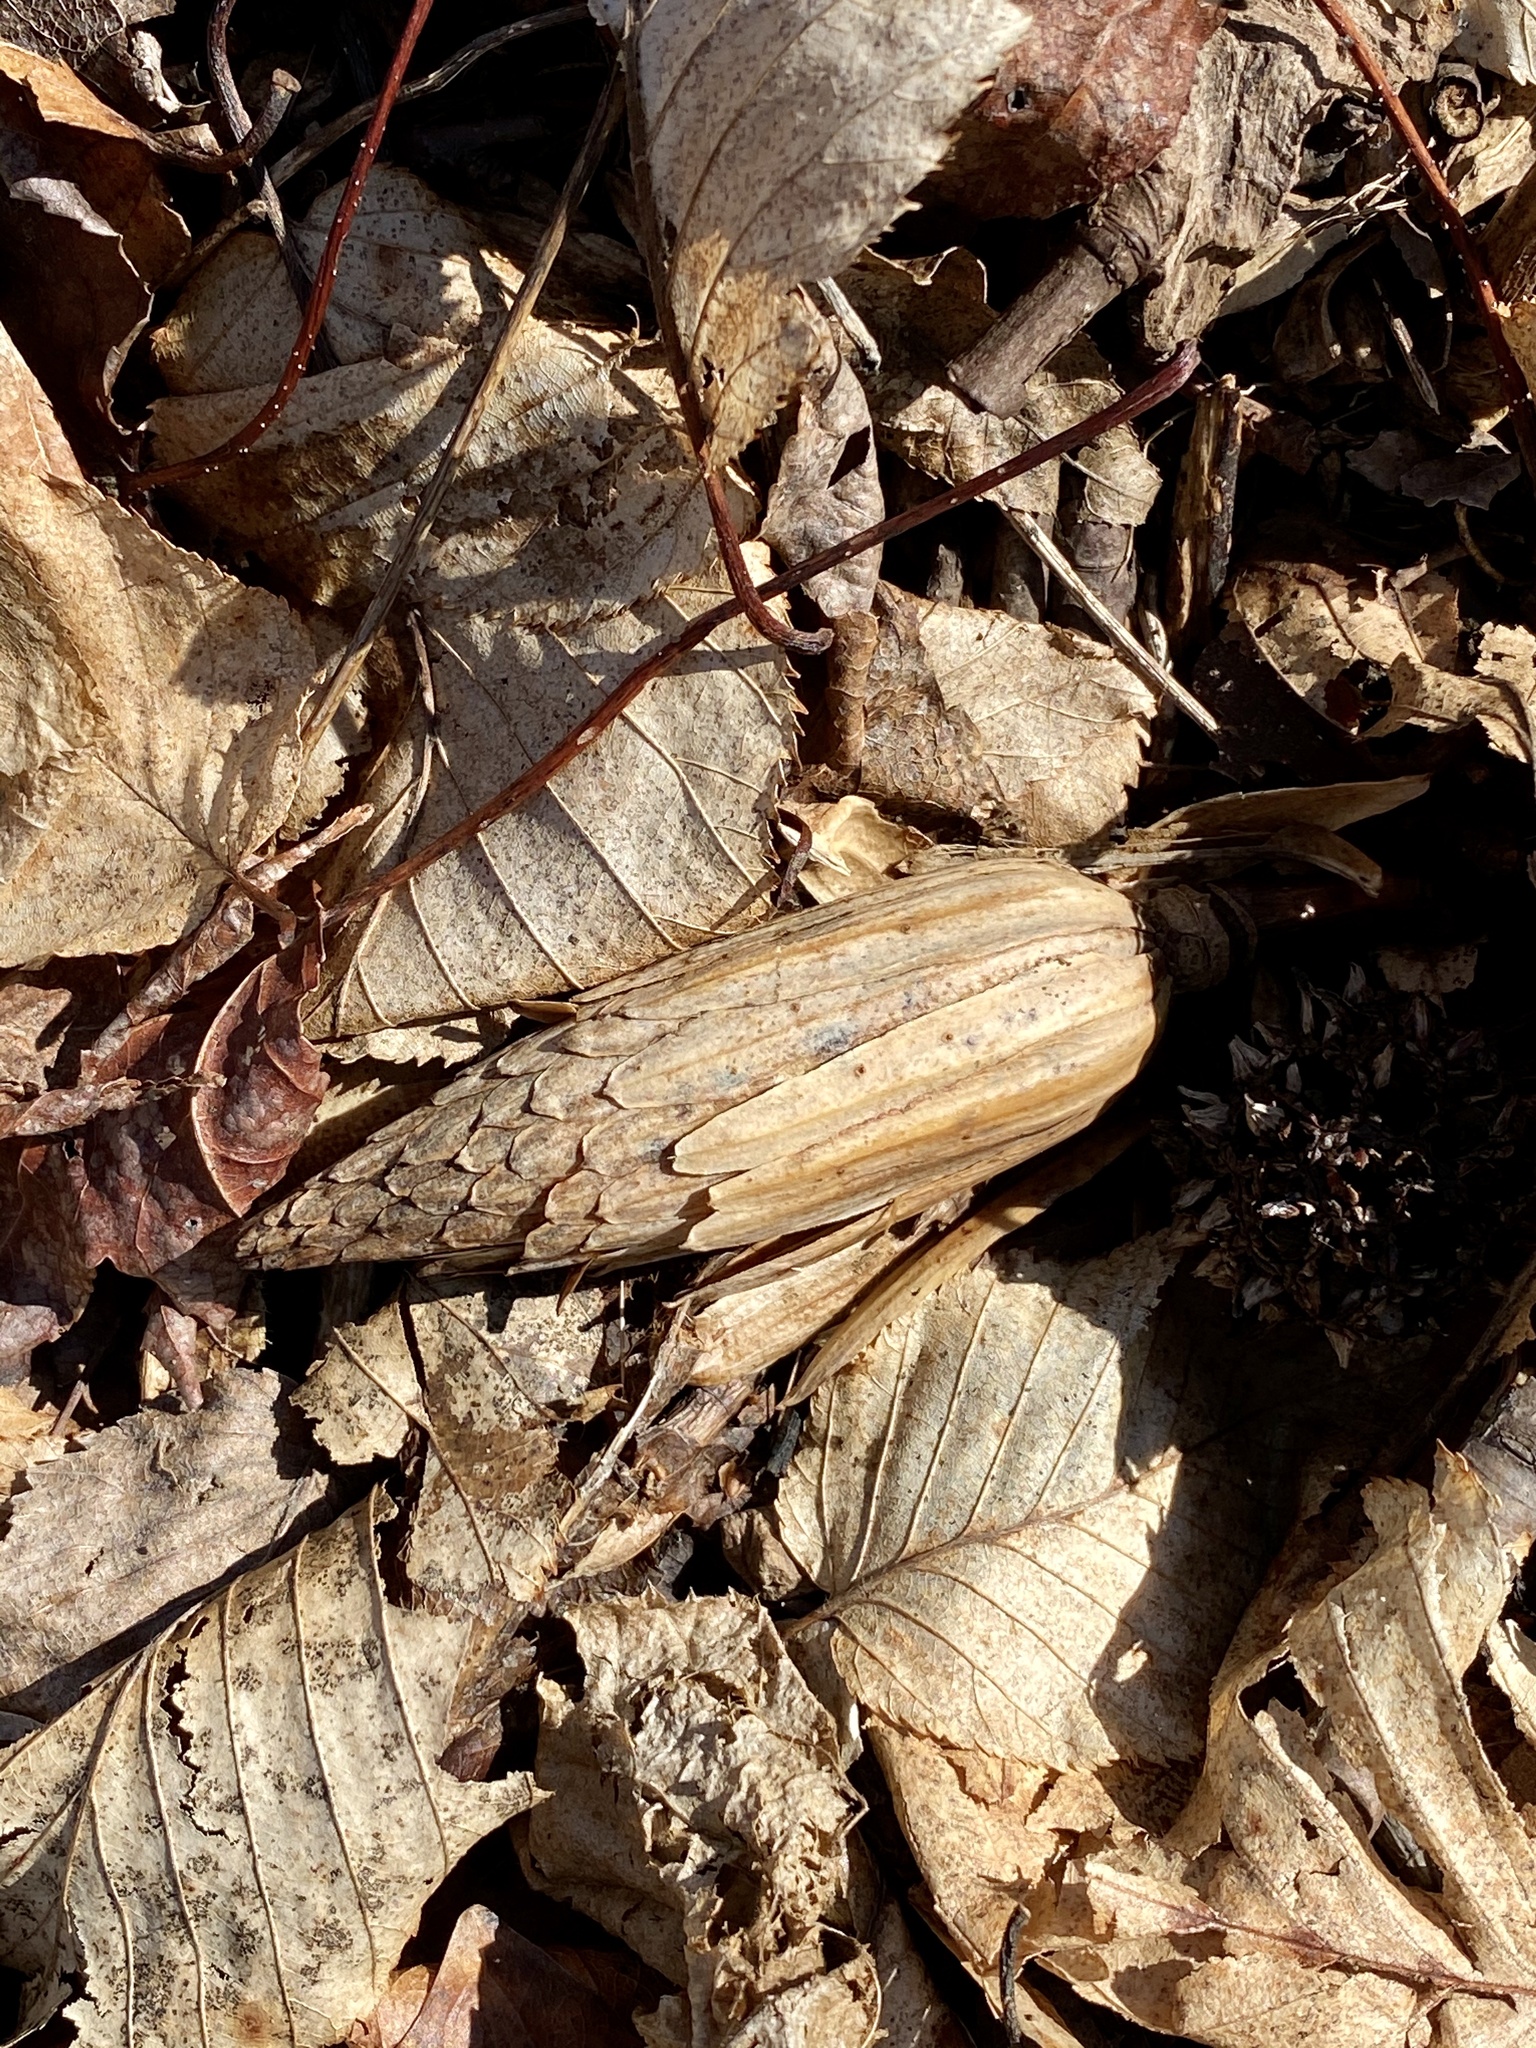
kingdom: Plantae
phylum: Tracheophyta
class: Magnoliopsida
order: Magnoliales
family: Magnoliaceae
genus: Liriodendron
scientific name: Liriodendron tulipifera
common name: Tulip tree
